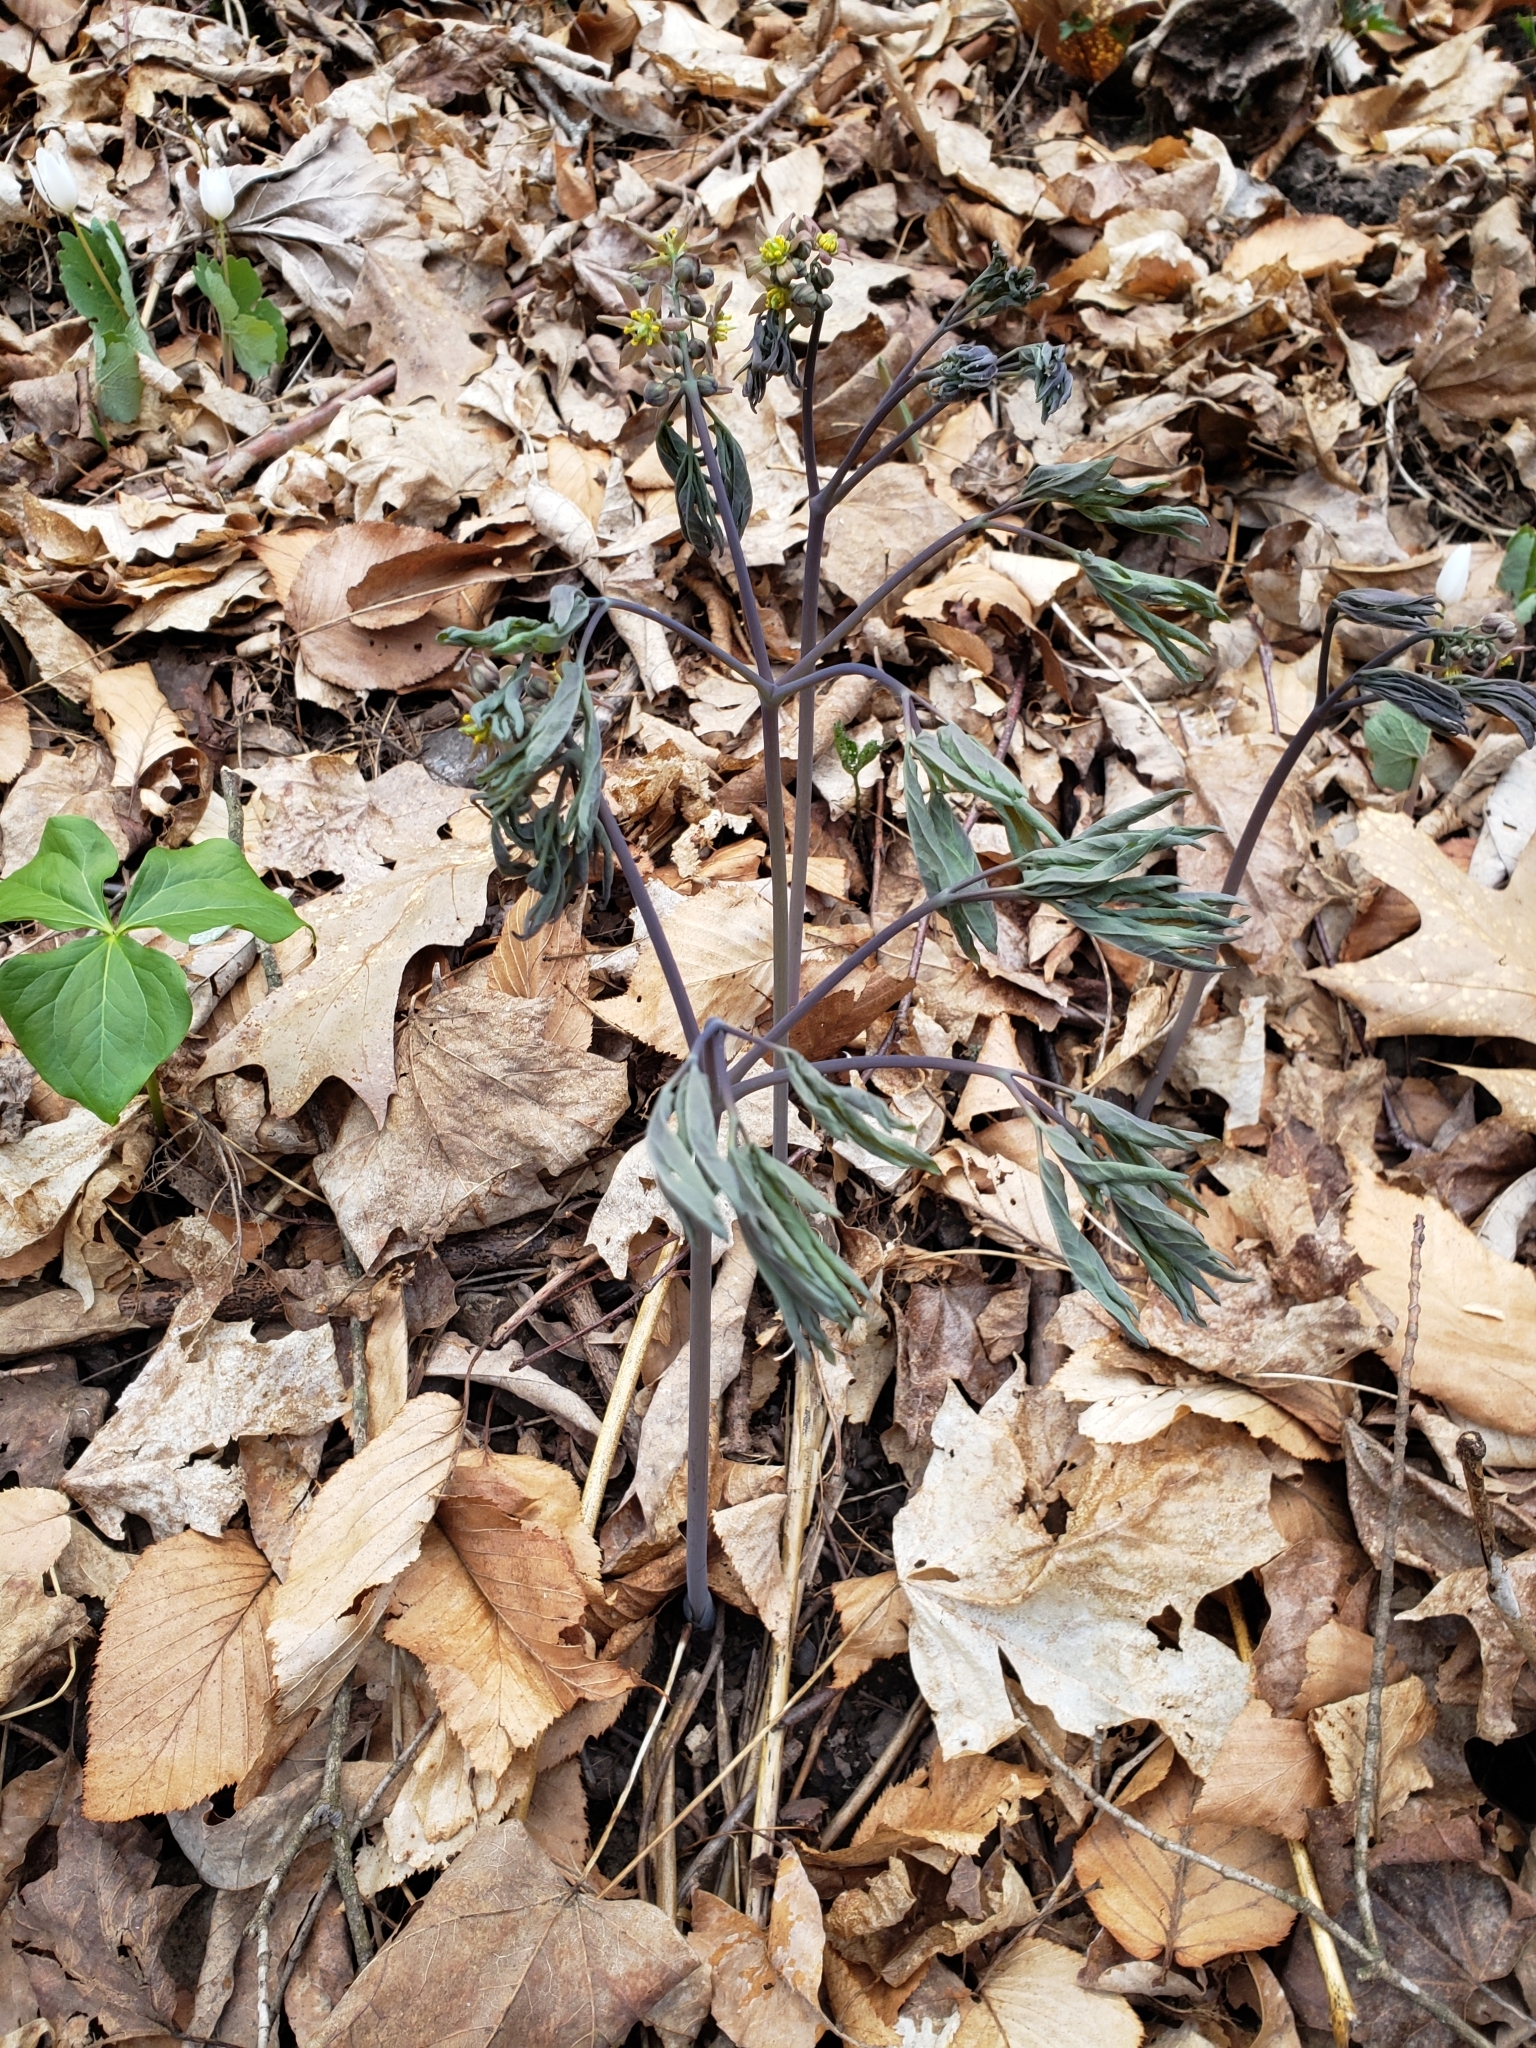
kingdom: Plantae
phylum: Tracheophyta
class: Magnoliopsida
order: Ranunculales
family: Berberidaceae
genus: Caulophyllum
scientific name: Caulophyllum giganteum
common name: Blue cohosh
